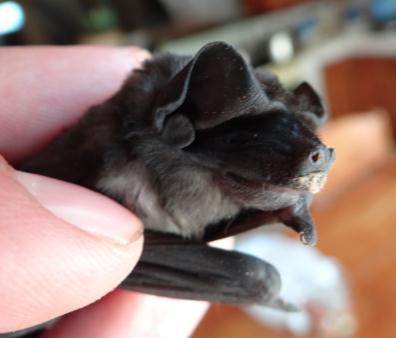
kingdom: Animalia
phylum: Chordata
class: Mammalia
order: Chiroptera
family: Molossidae
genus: Molossus
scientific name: Molossus molossus
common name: Pallas's mastiff bat
